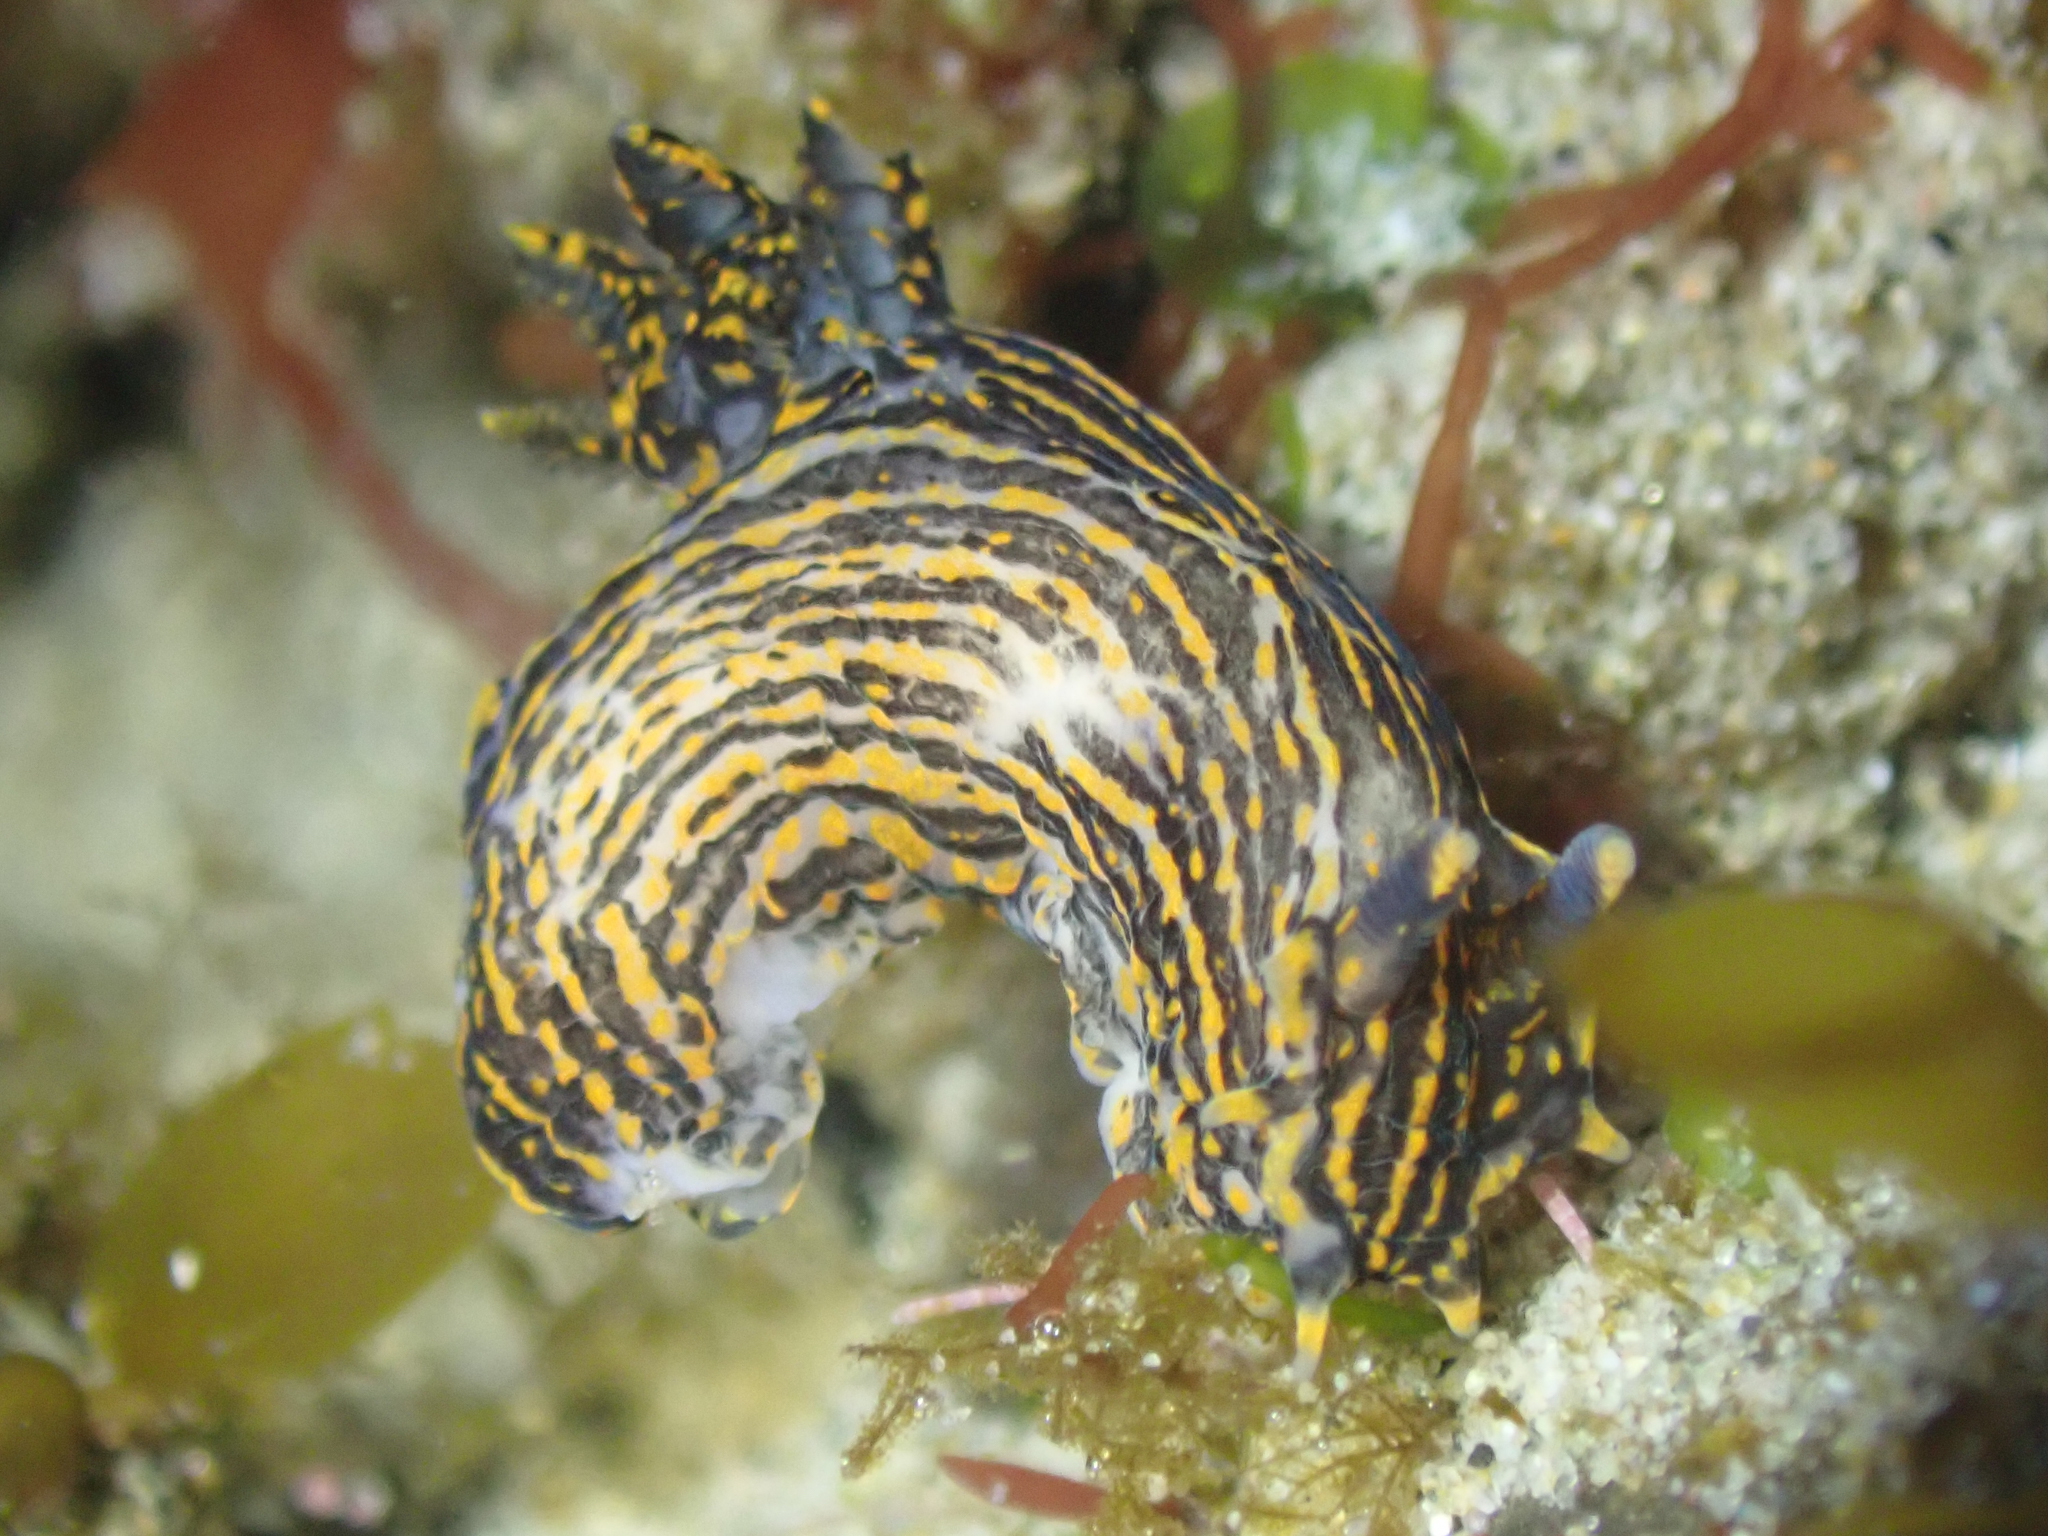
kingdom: Animalia
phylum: Mollusca
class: Gastropoda
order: Nudibranchia
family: Polyceridae
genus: Polycera
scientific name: Polycera atra
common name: Orange-spike polycera
